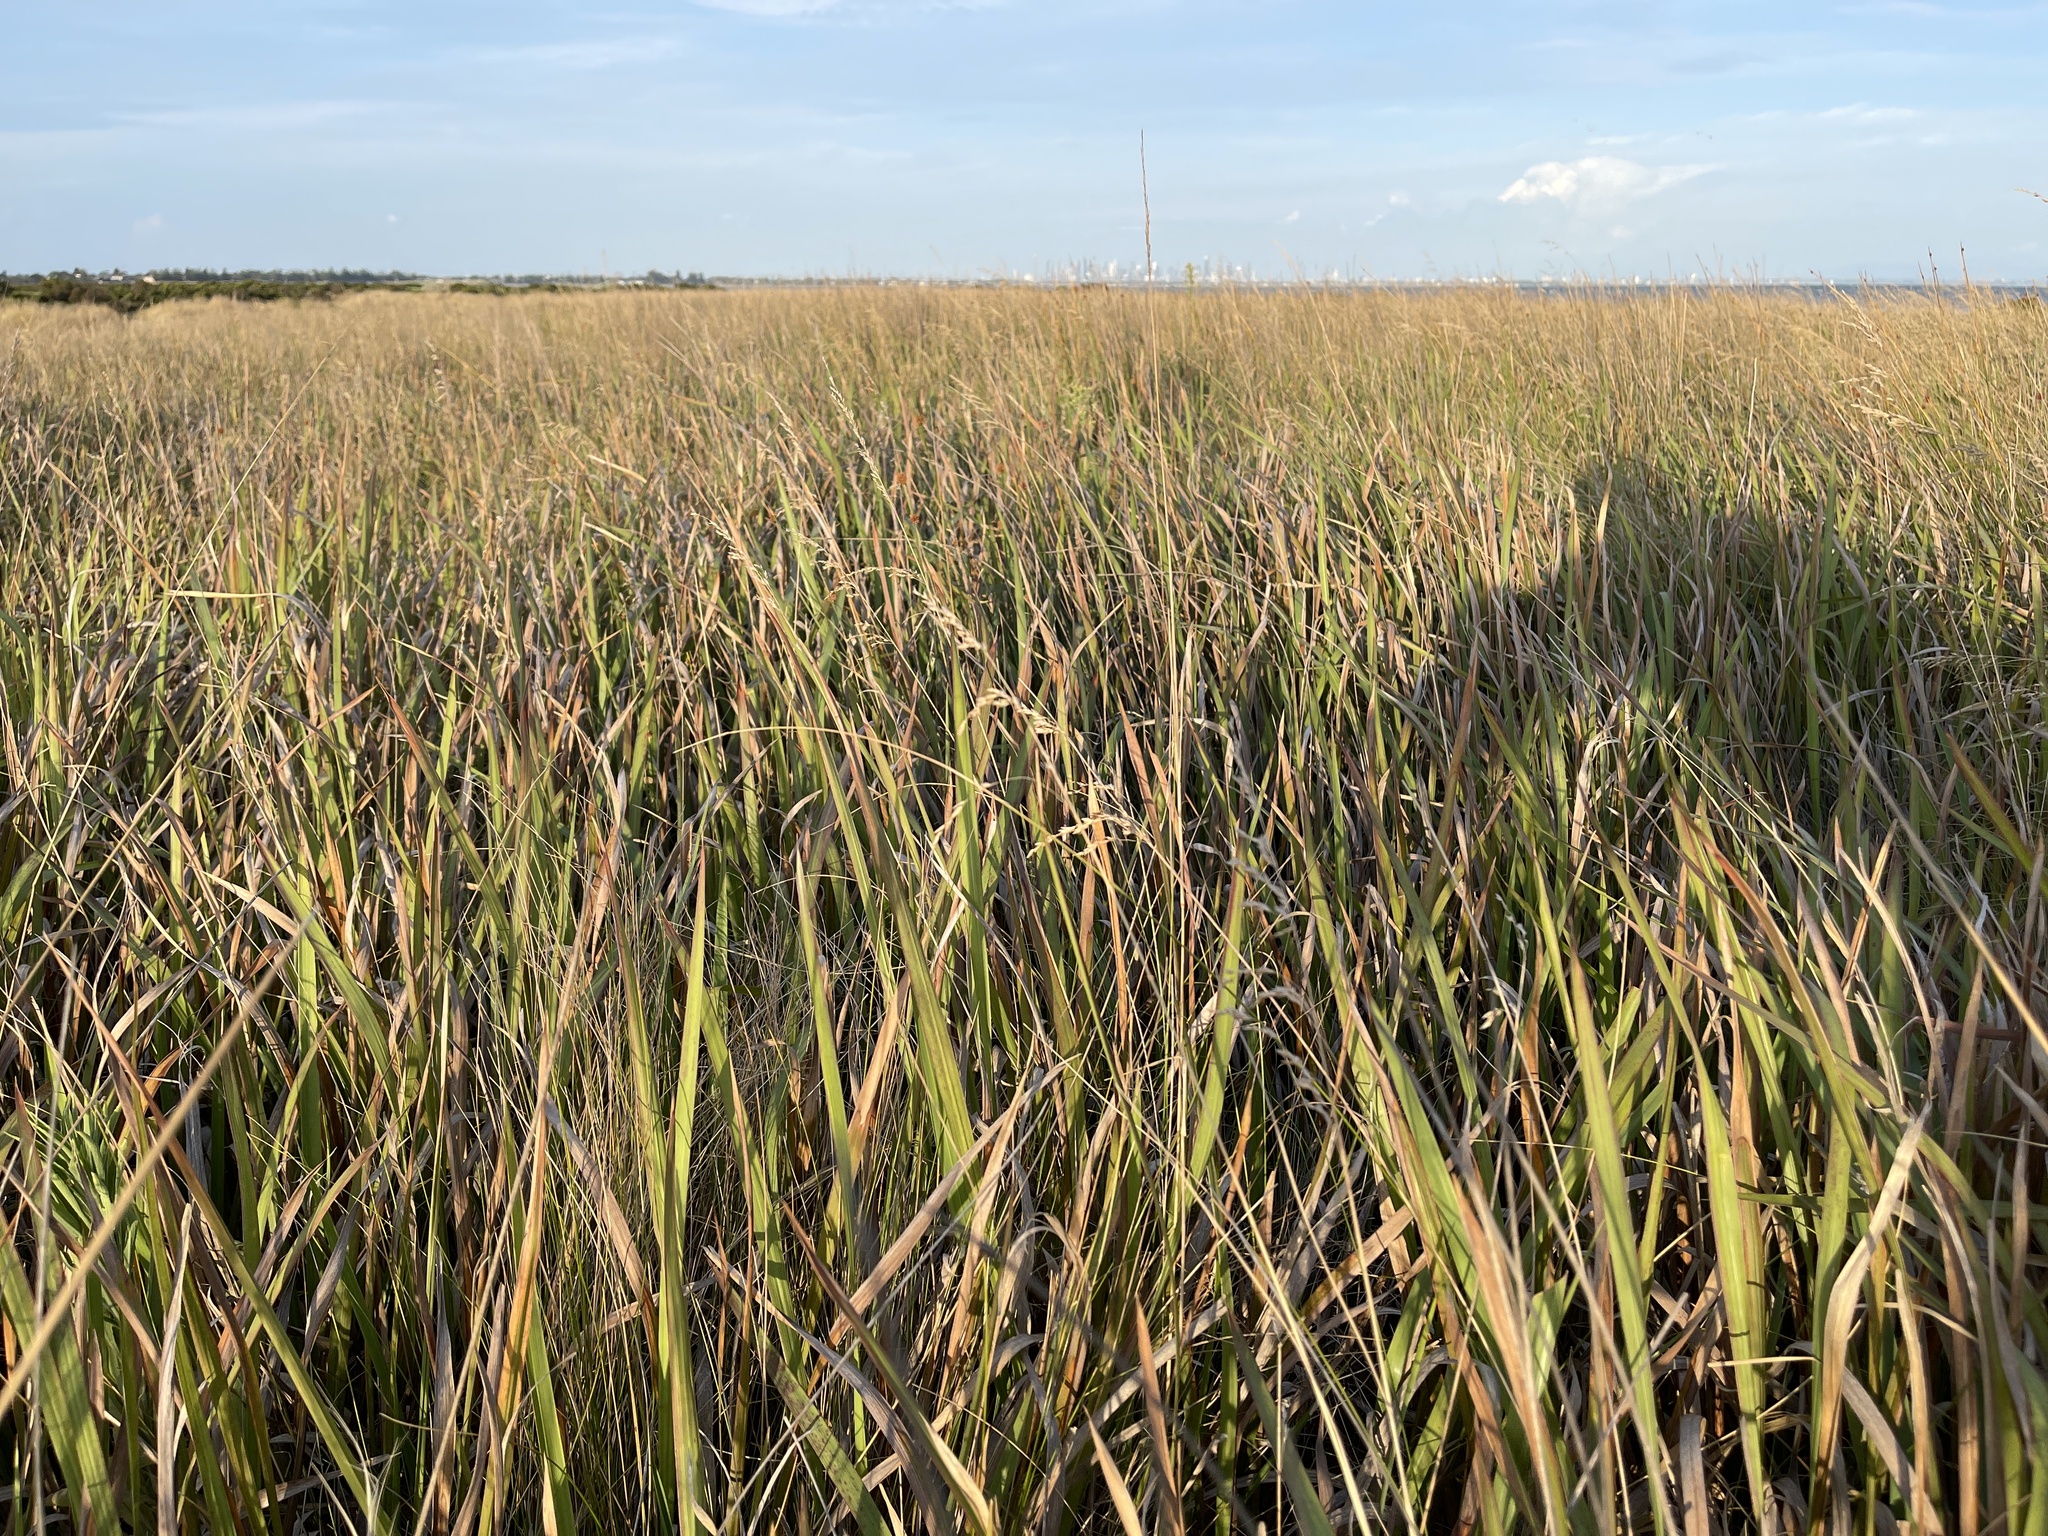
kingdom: Plantae
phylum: Tracheophyta
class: Liliopsida
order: Poales
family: Poaceae
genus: Imperata
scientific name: Imperata cylindrica
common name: Cogongrass
